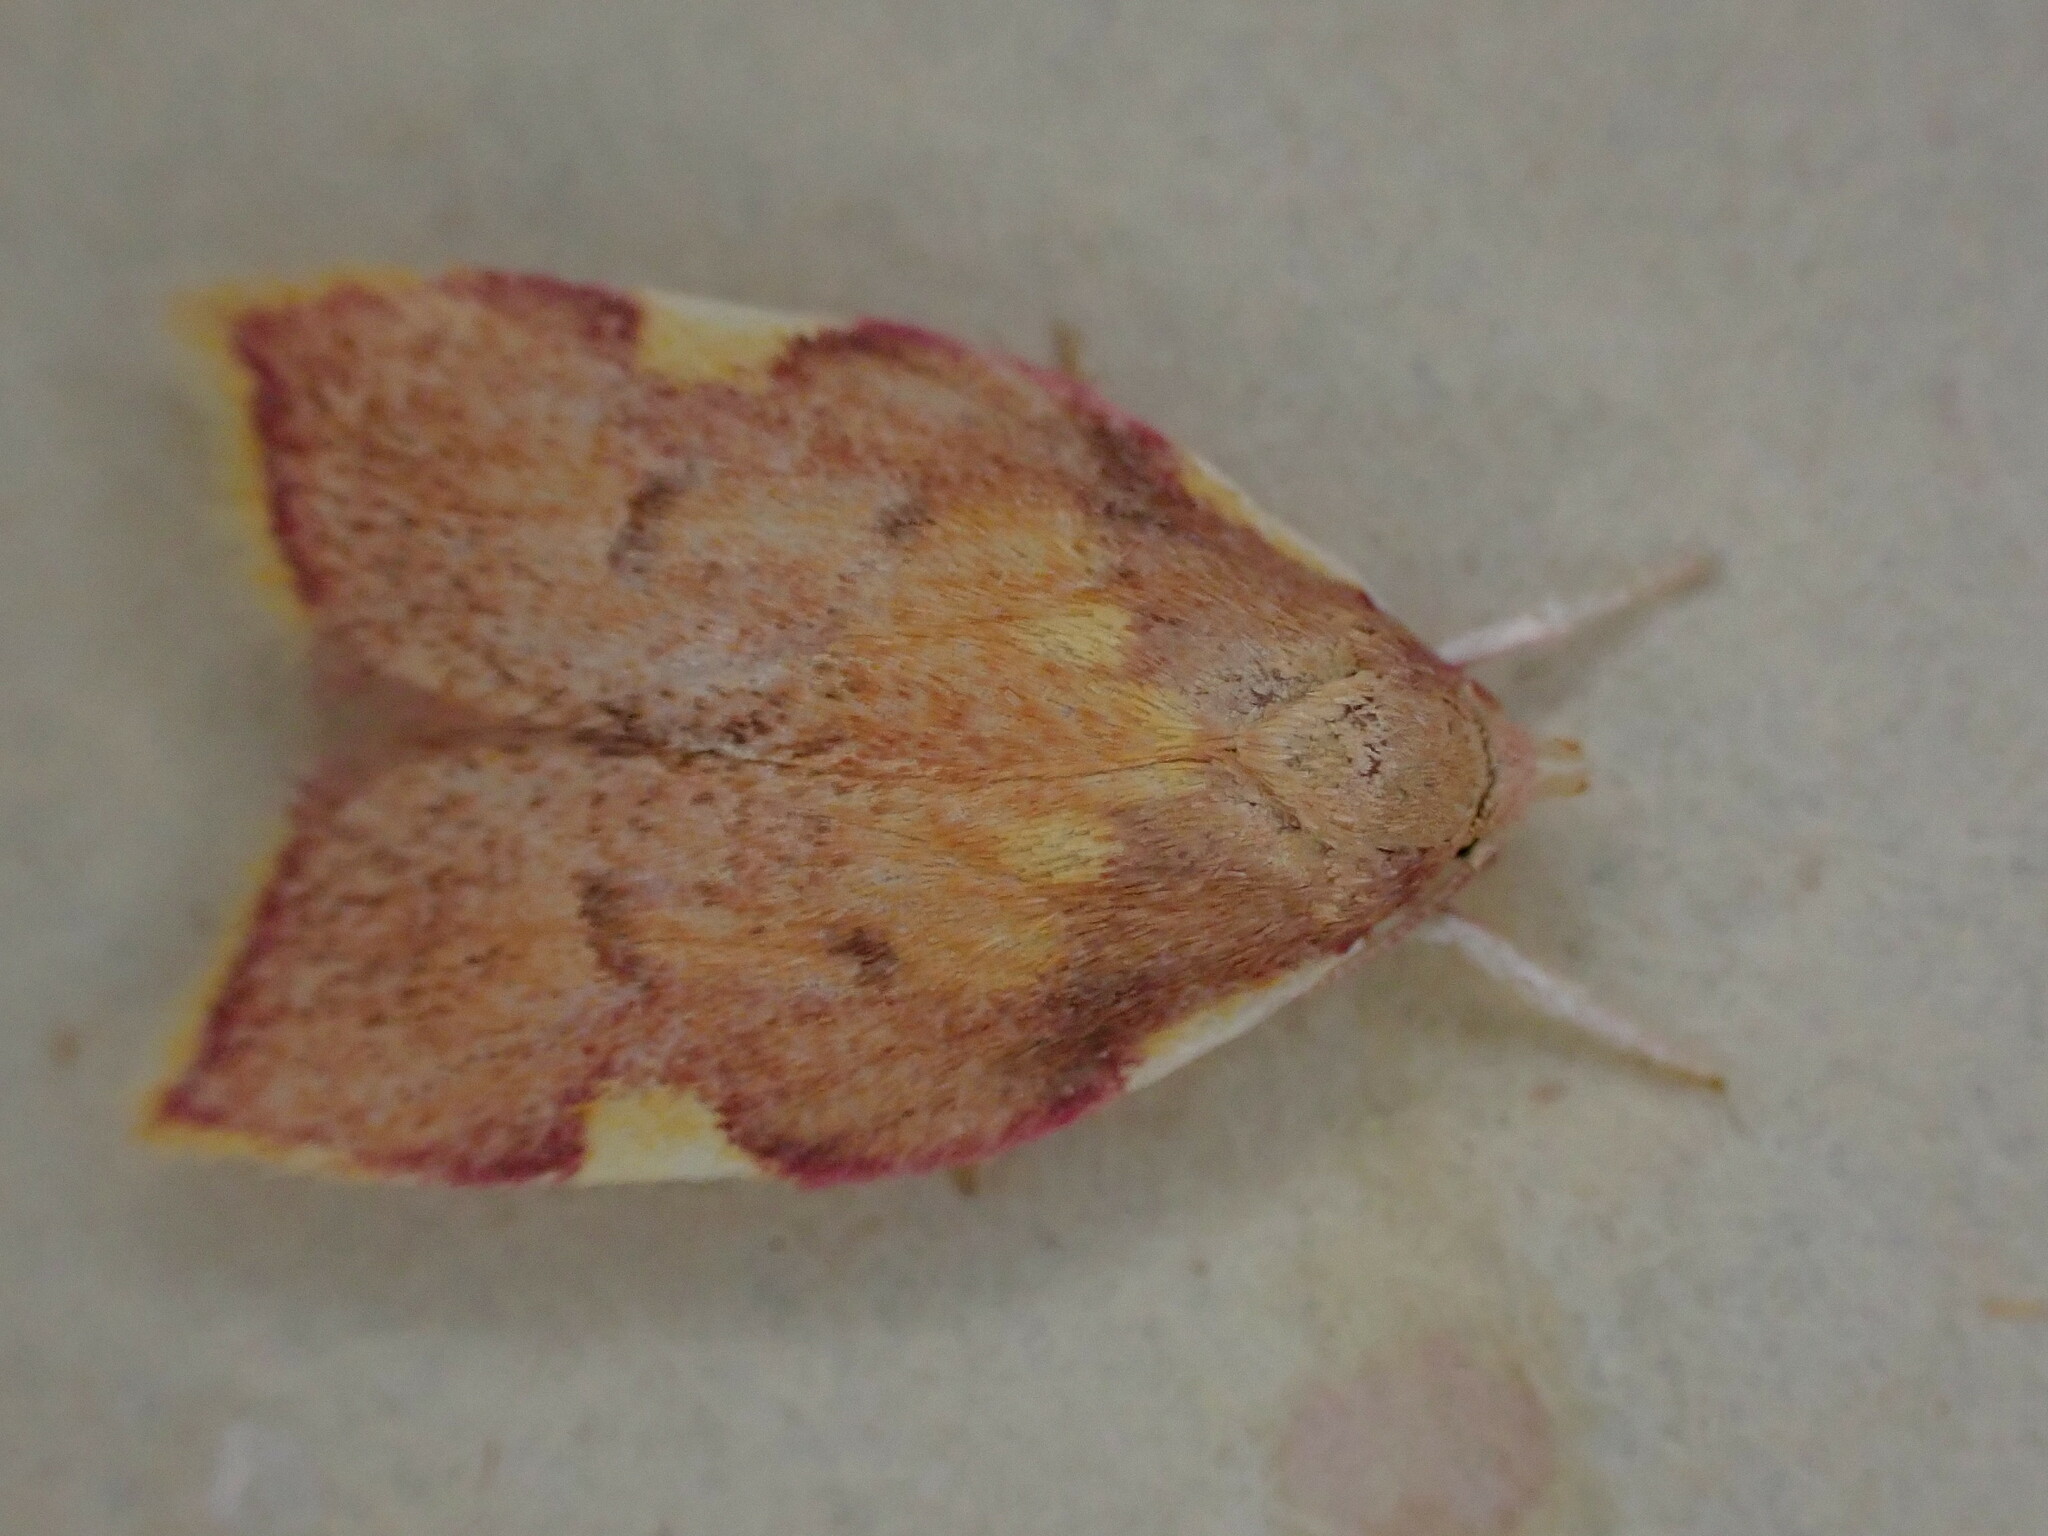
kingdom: Animalia
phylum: Arthropoda
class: Insecta
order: Lepidoptera
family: Peleopodidae
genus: Carcina
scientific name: Carcina quercana
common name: Moth
